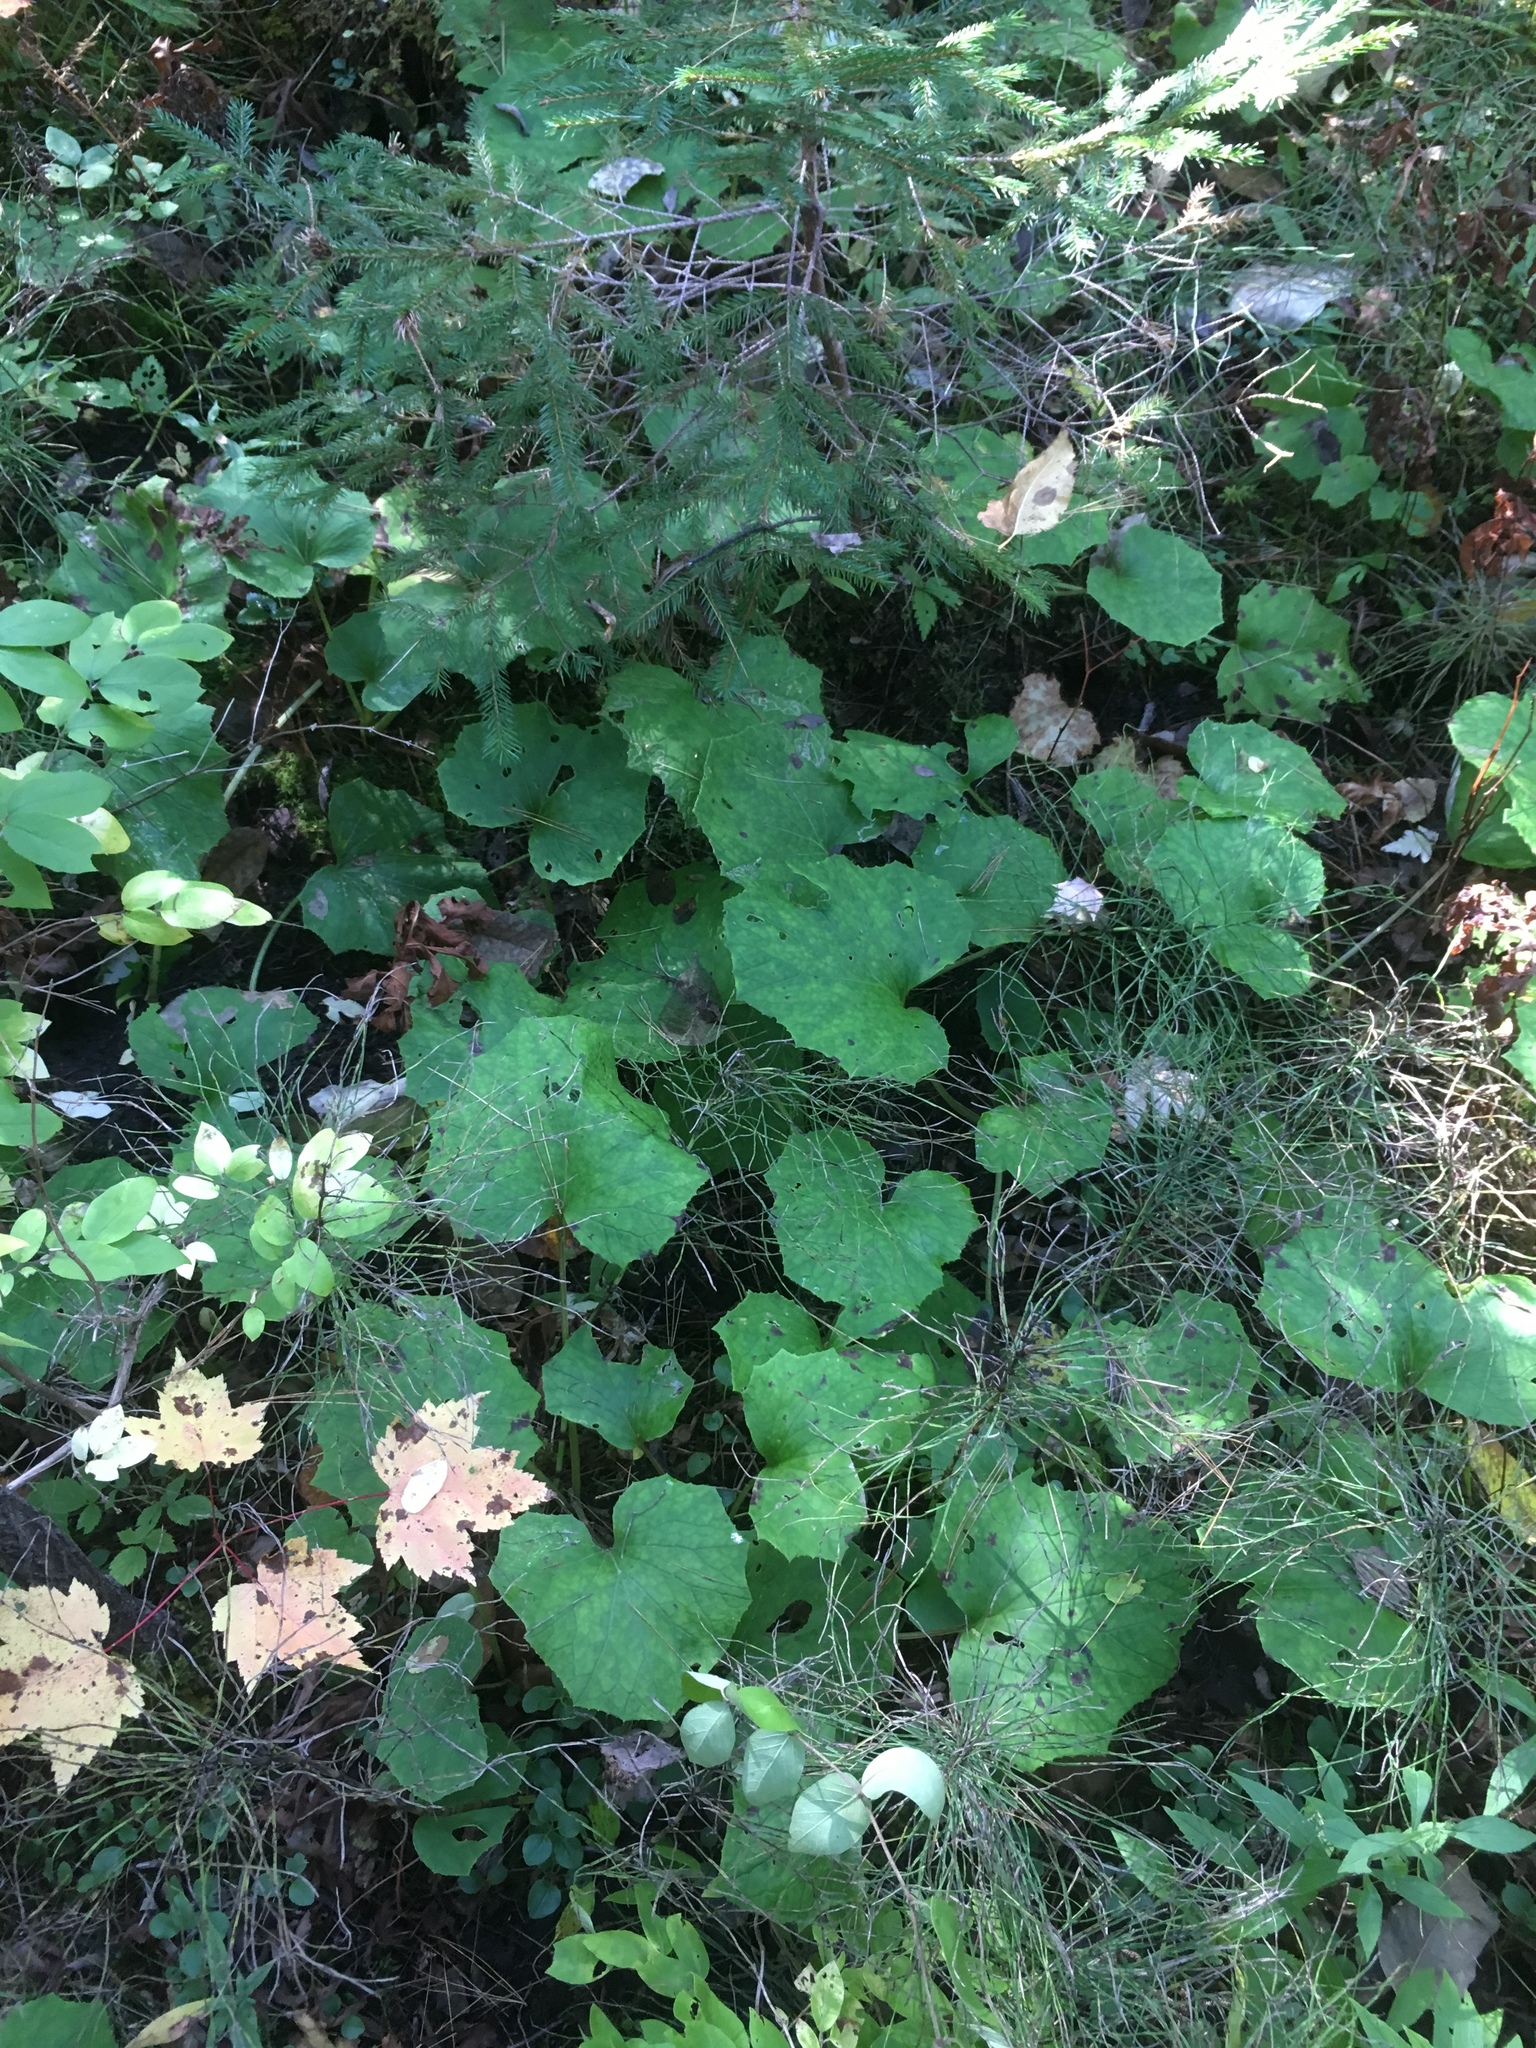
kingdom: Plantae
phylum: Tracheophyta
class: Magnoliopsida
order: Asterales
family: Asteraceae
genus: Tussilago
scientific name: Tussilago farfara
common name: Coltsfoot
